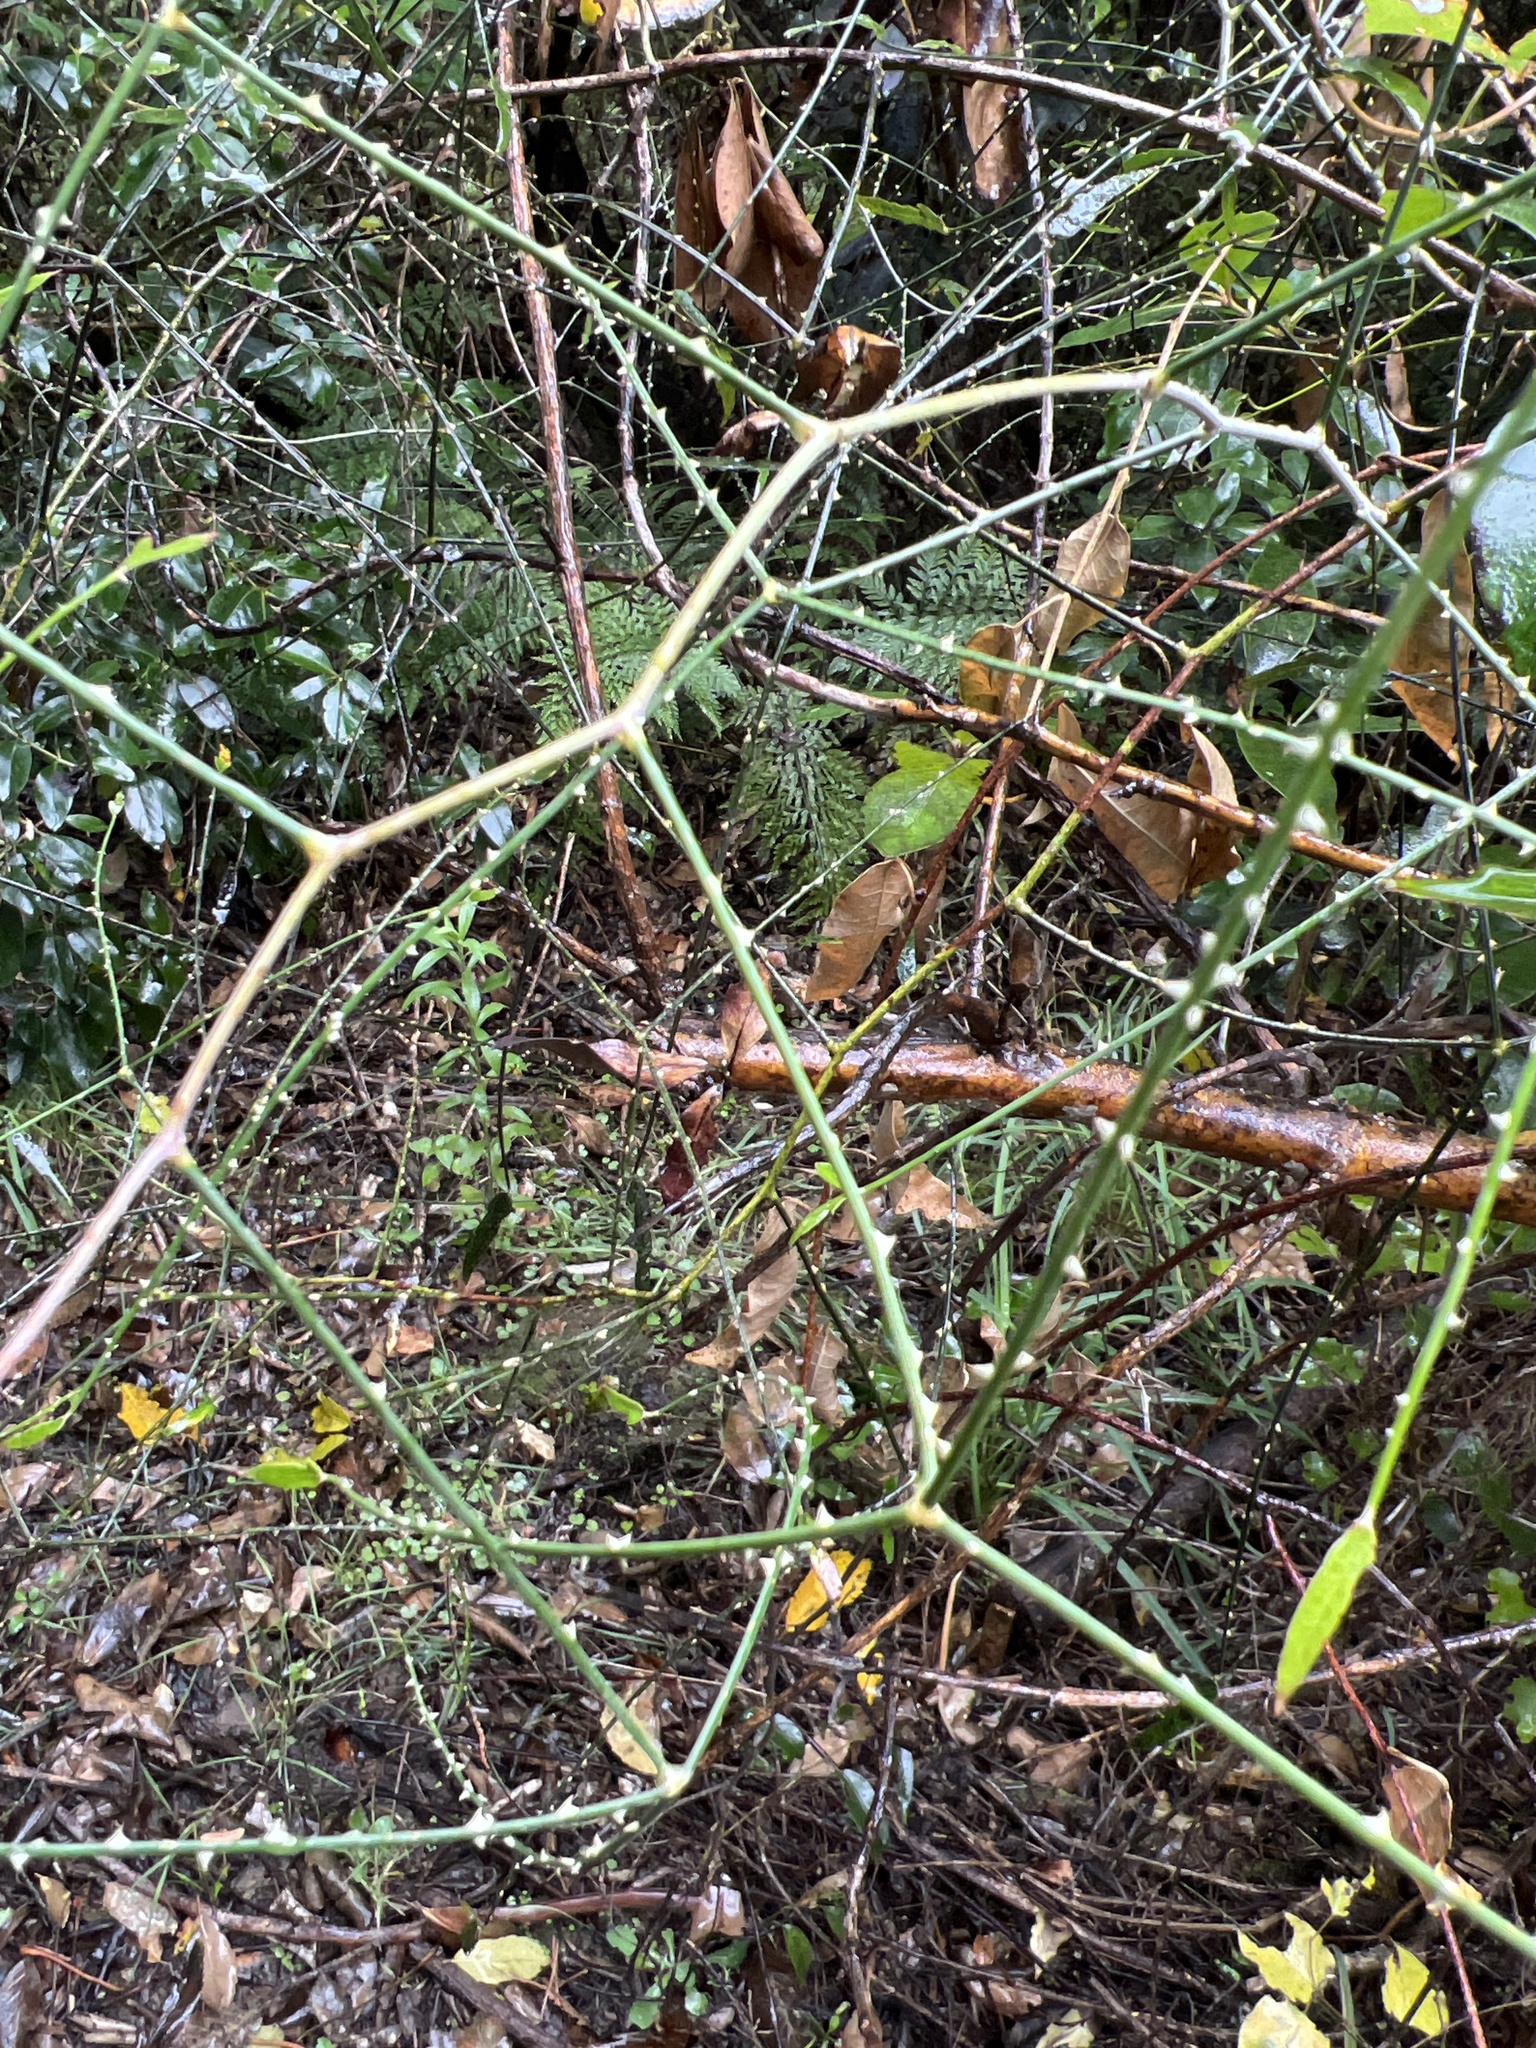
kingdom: Plantae
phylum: Tracheophyta
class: Magnoliopsida
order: Rosales
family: Rosaceae
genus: Rubus
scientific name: Rubus squarrosus
